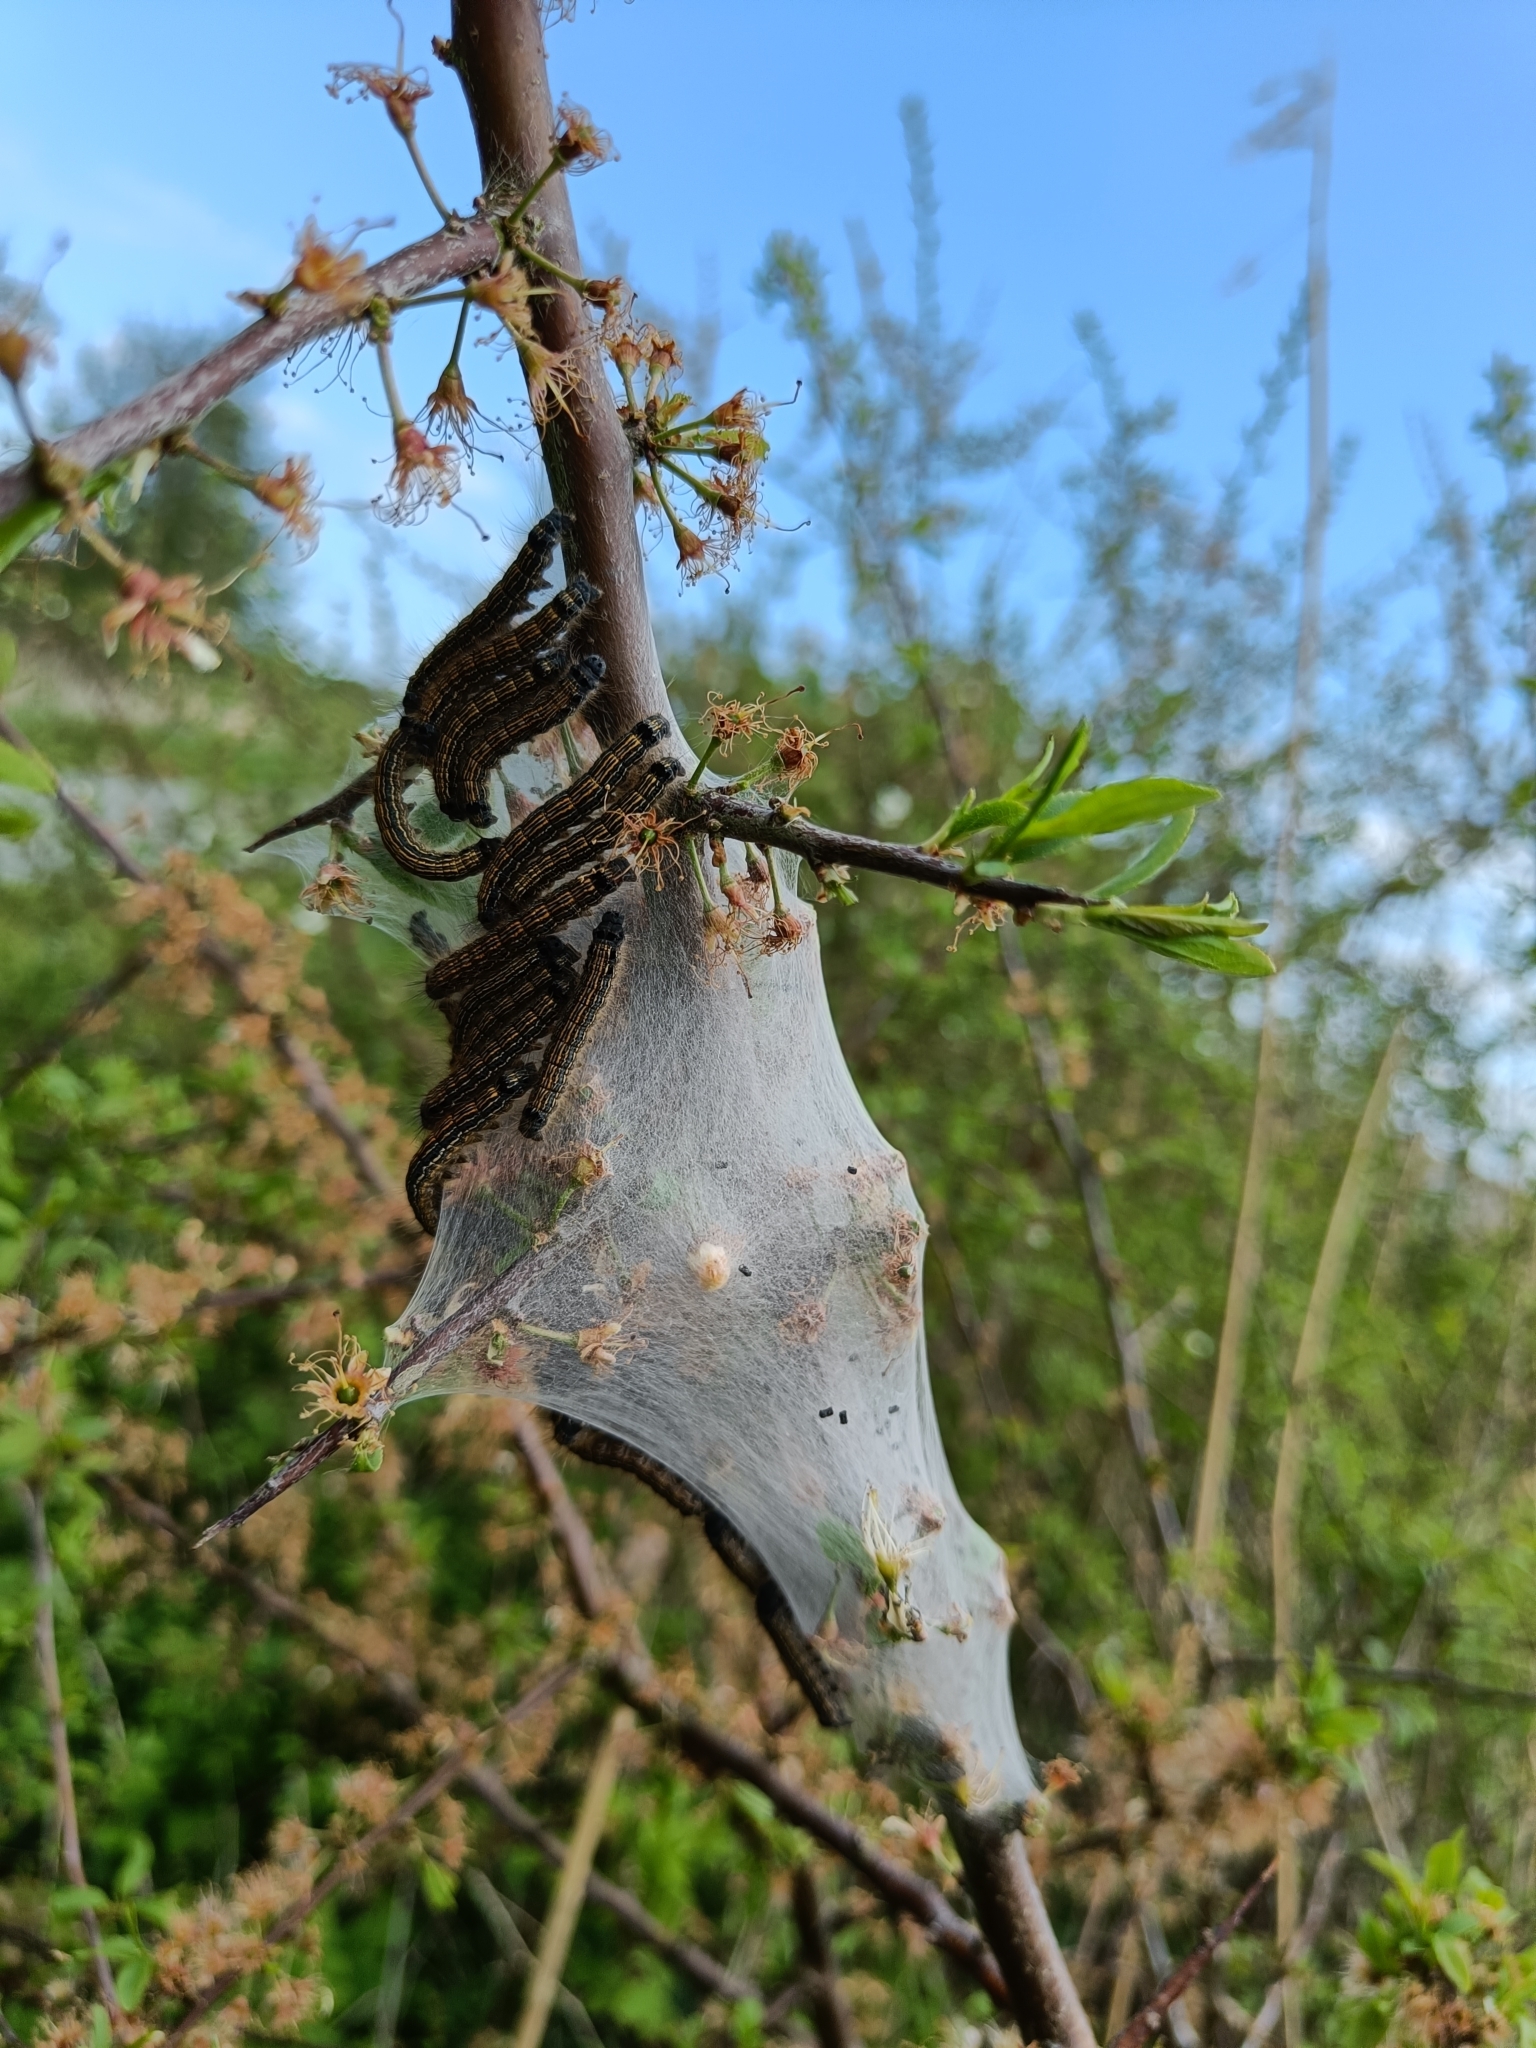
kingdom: Animalia
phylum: Arthropoda
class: Insecta
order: Lepidoptera
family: Lasiocampidae
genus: Malacosoma
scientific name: Malacosoma neustria
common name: The lackey
